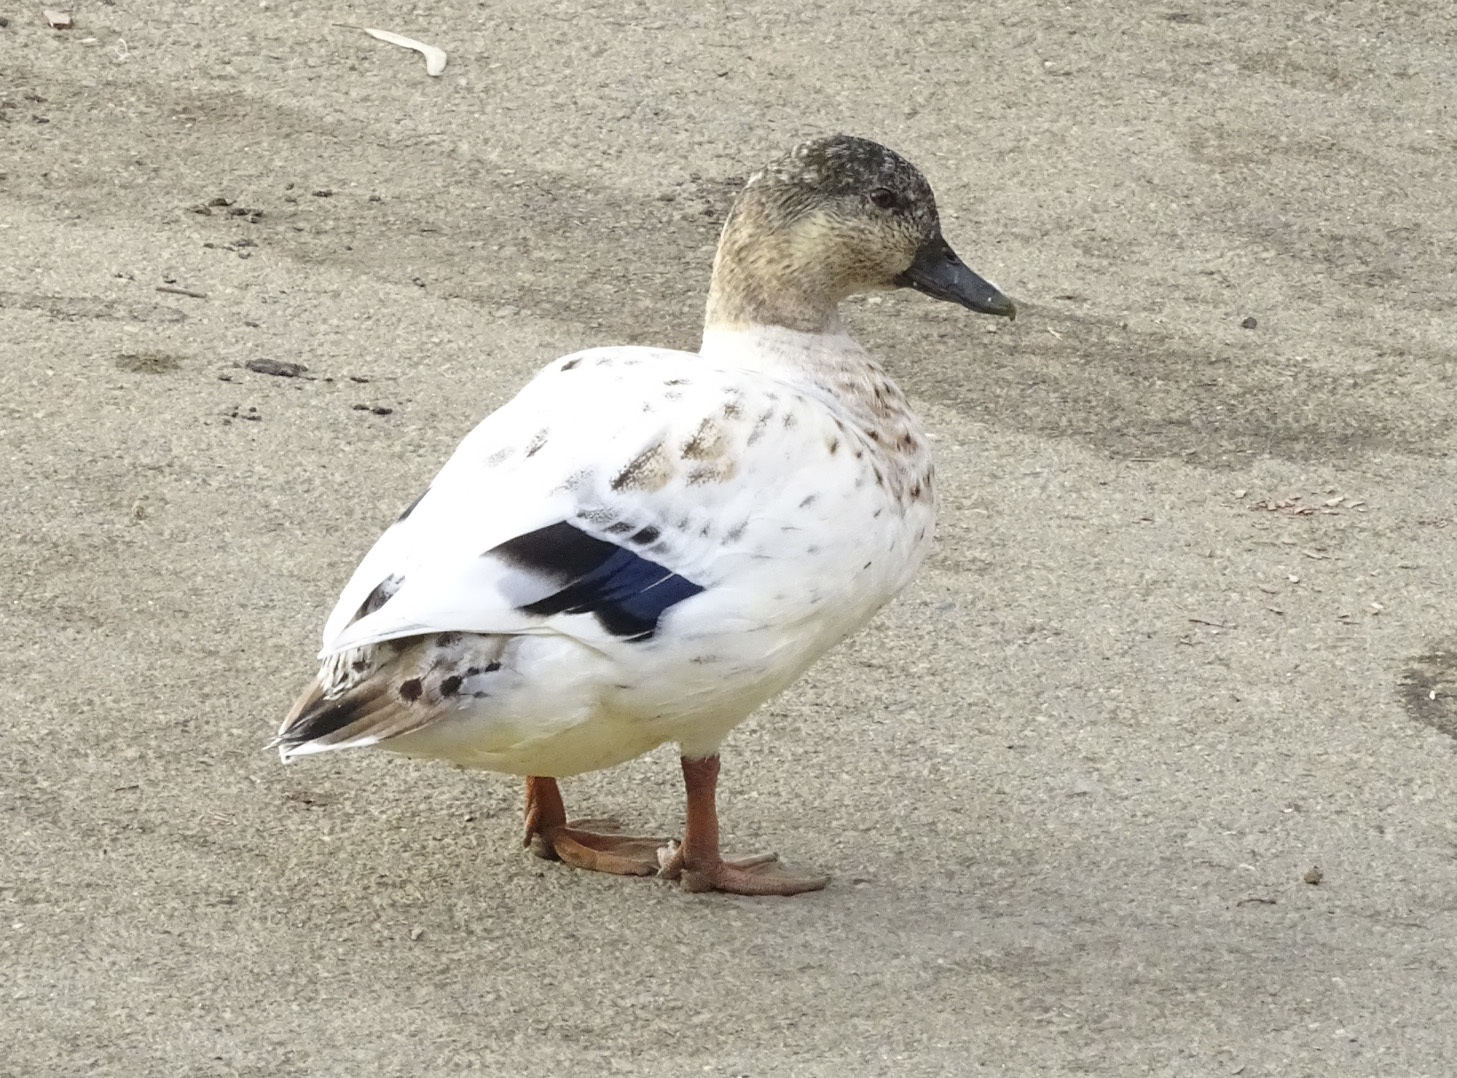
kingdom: Animalia
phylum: Chordata
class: Aves
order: Anseriformes
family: Anatidae
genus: Anas
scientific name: Anas platyrhynchos
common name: Mallard
